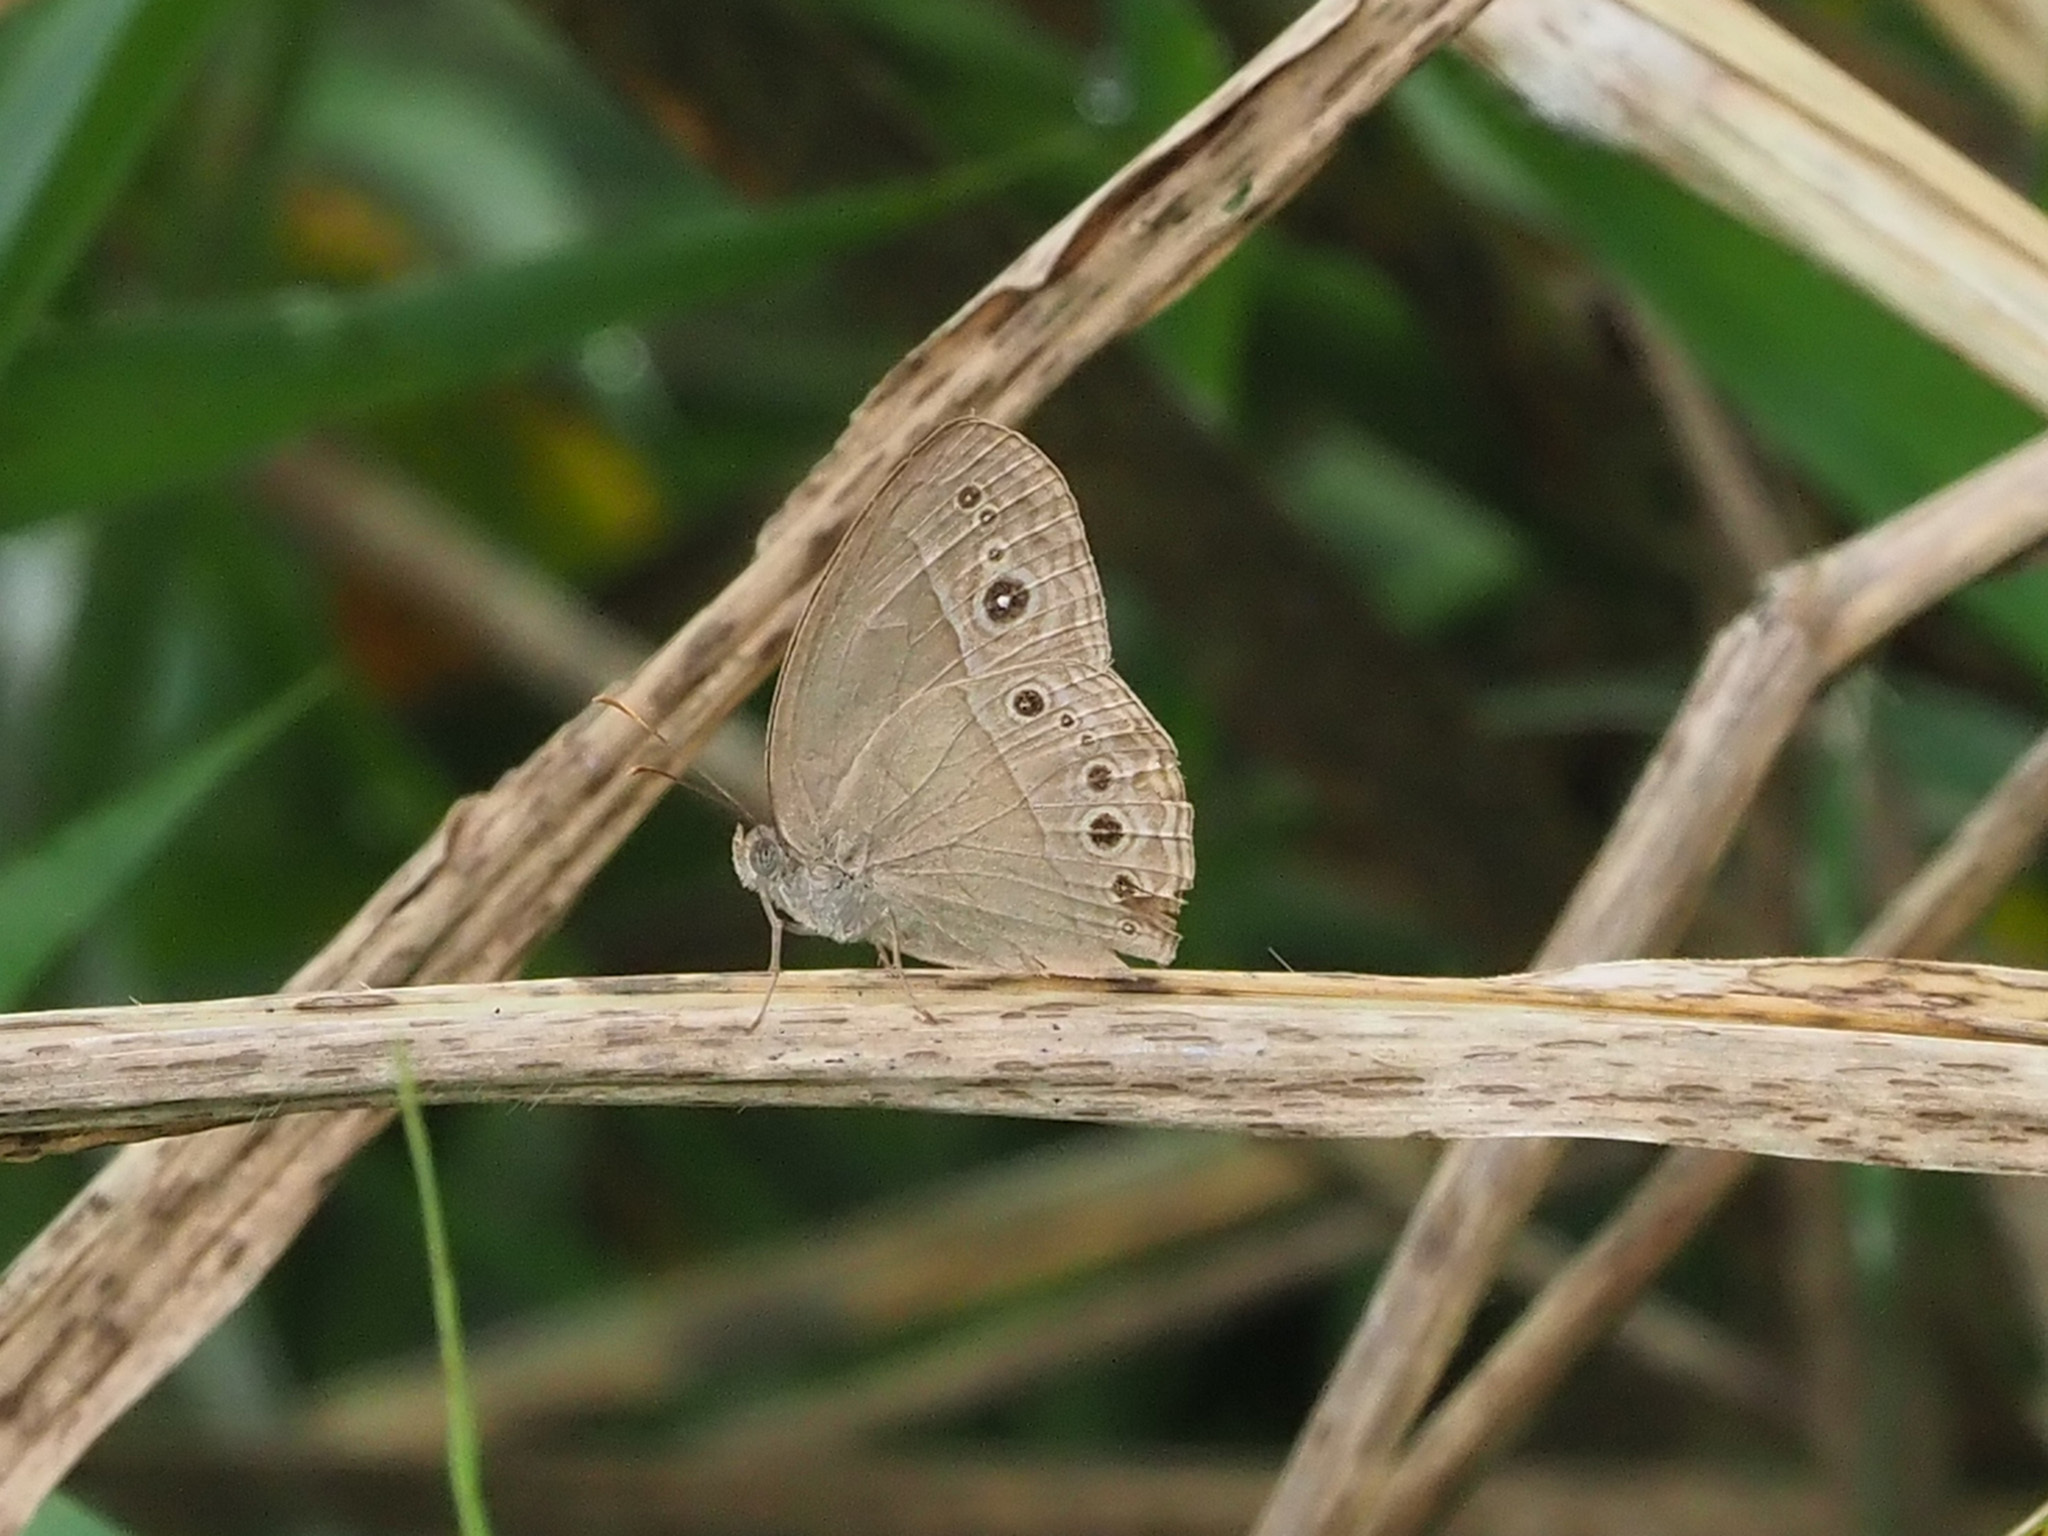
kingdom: Animalia
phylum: Arthropoda
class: Insecta
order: Lepidoptera
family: Nymphalidae
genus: Mycalesis
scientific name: Mycalesis perseoides
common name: Burmese bushbrown
